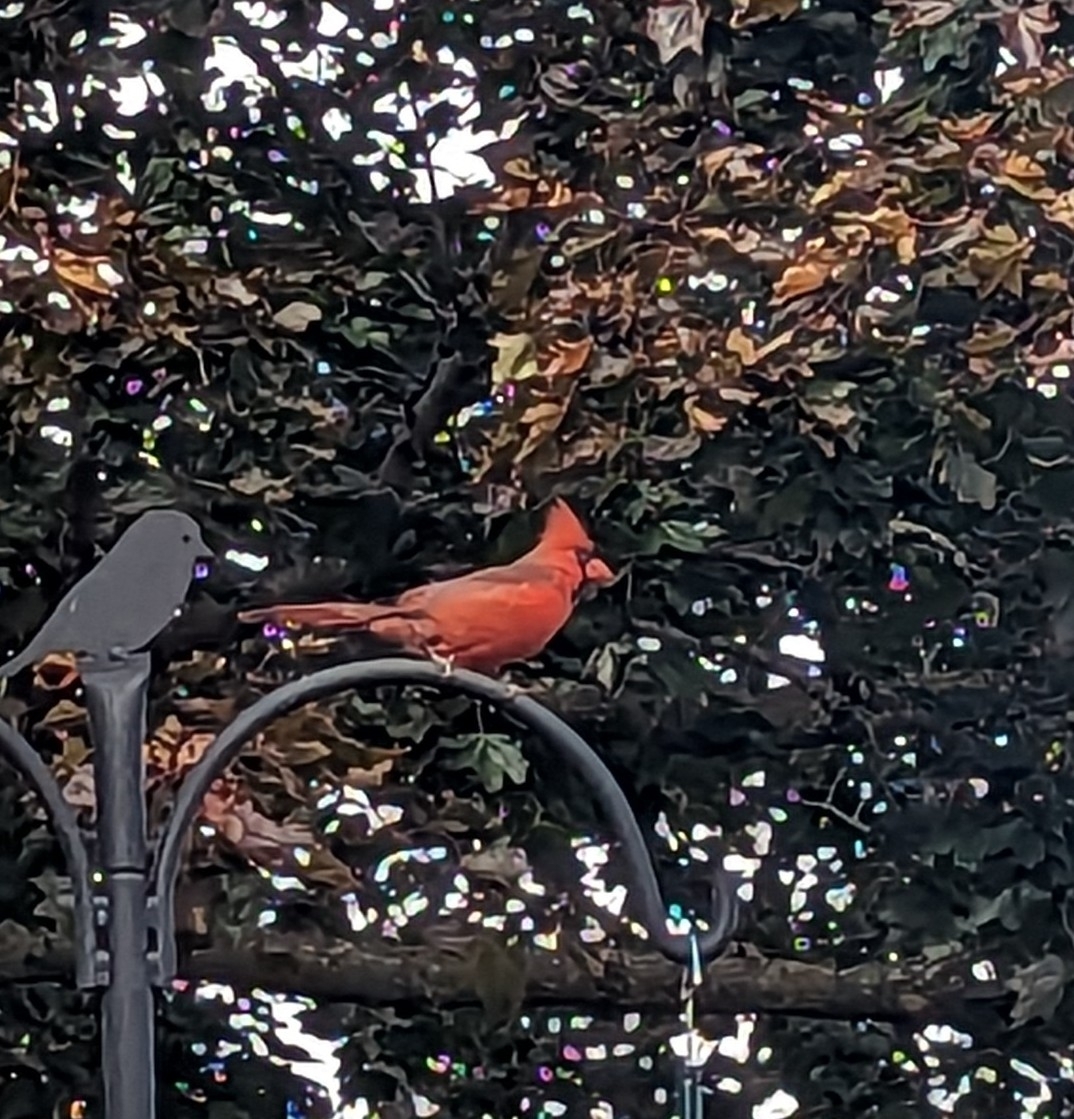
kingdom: Animalia
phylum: Chordata
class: Aves
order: Passeriformes
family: Cardinalidae
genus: Cardinalis
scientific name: Cardinalis cardinalis
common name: Northern cardinal
